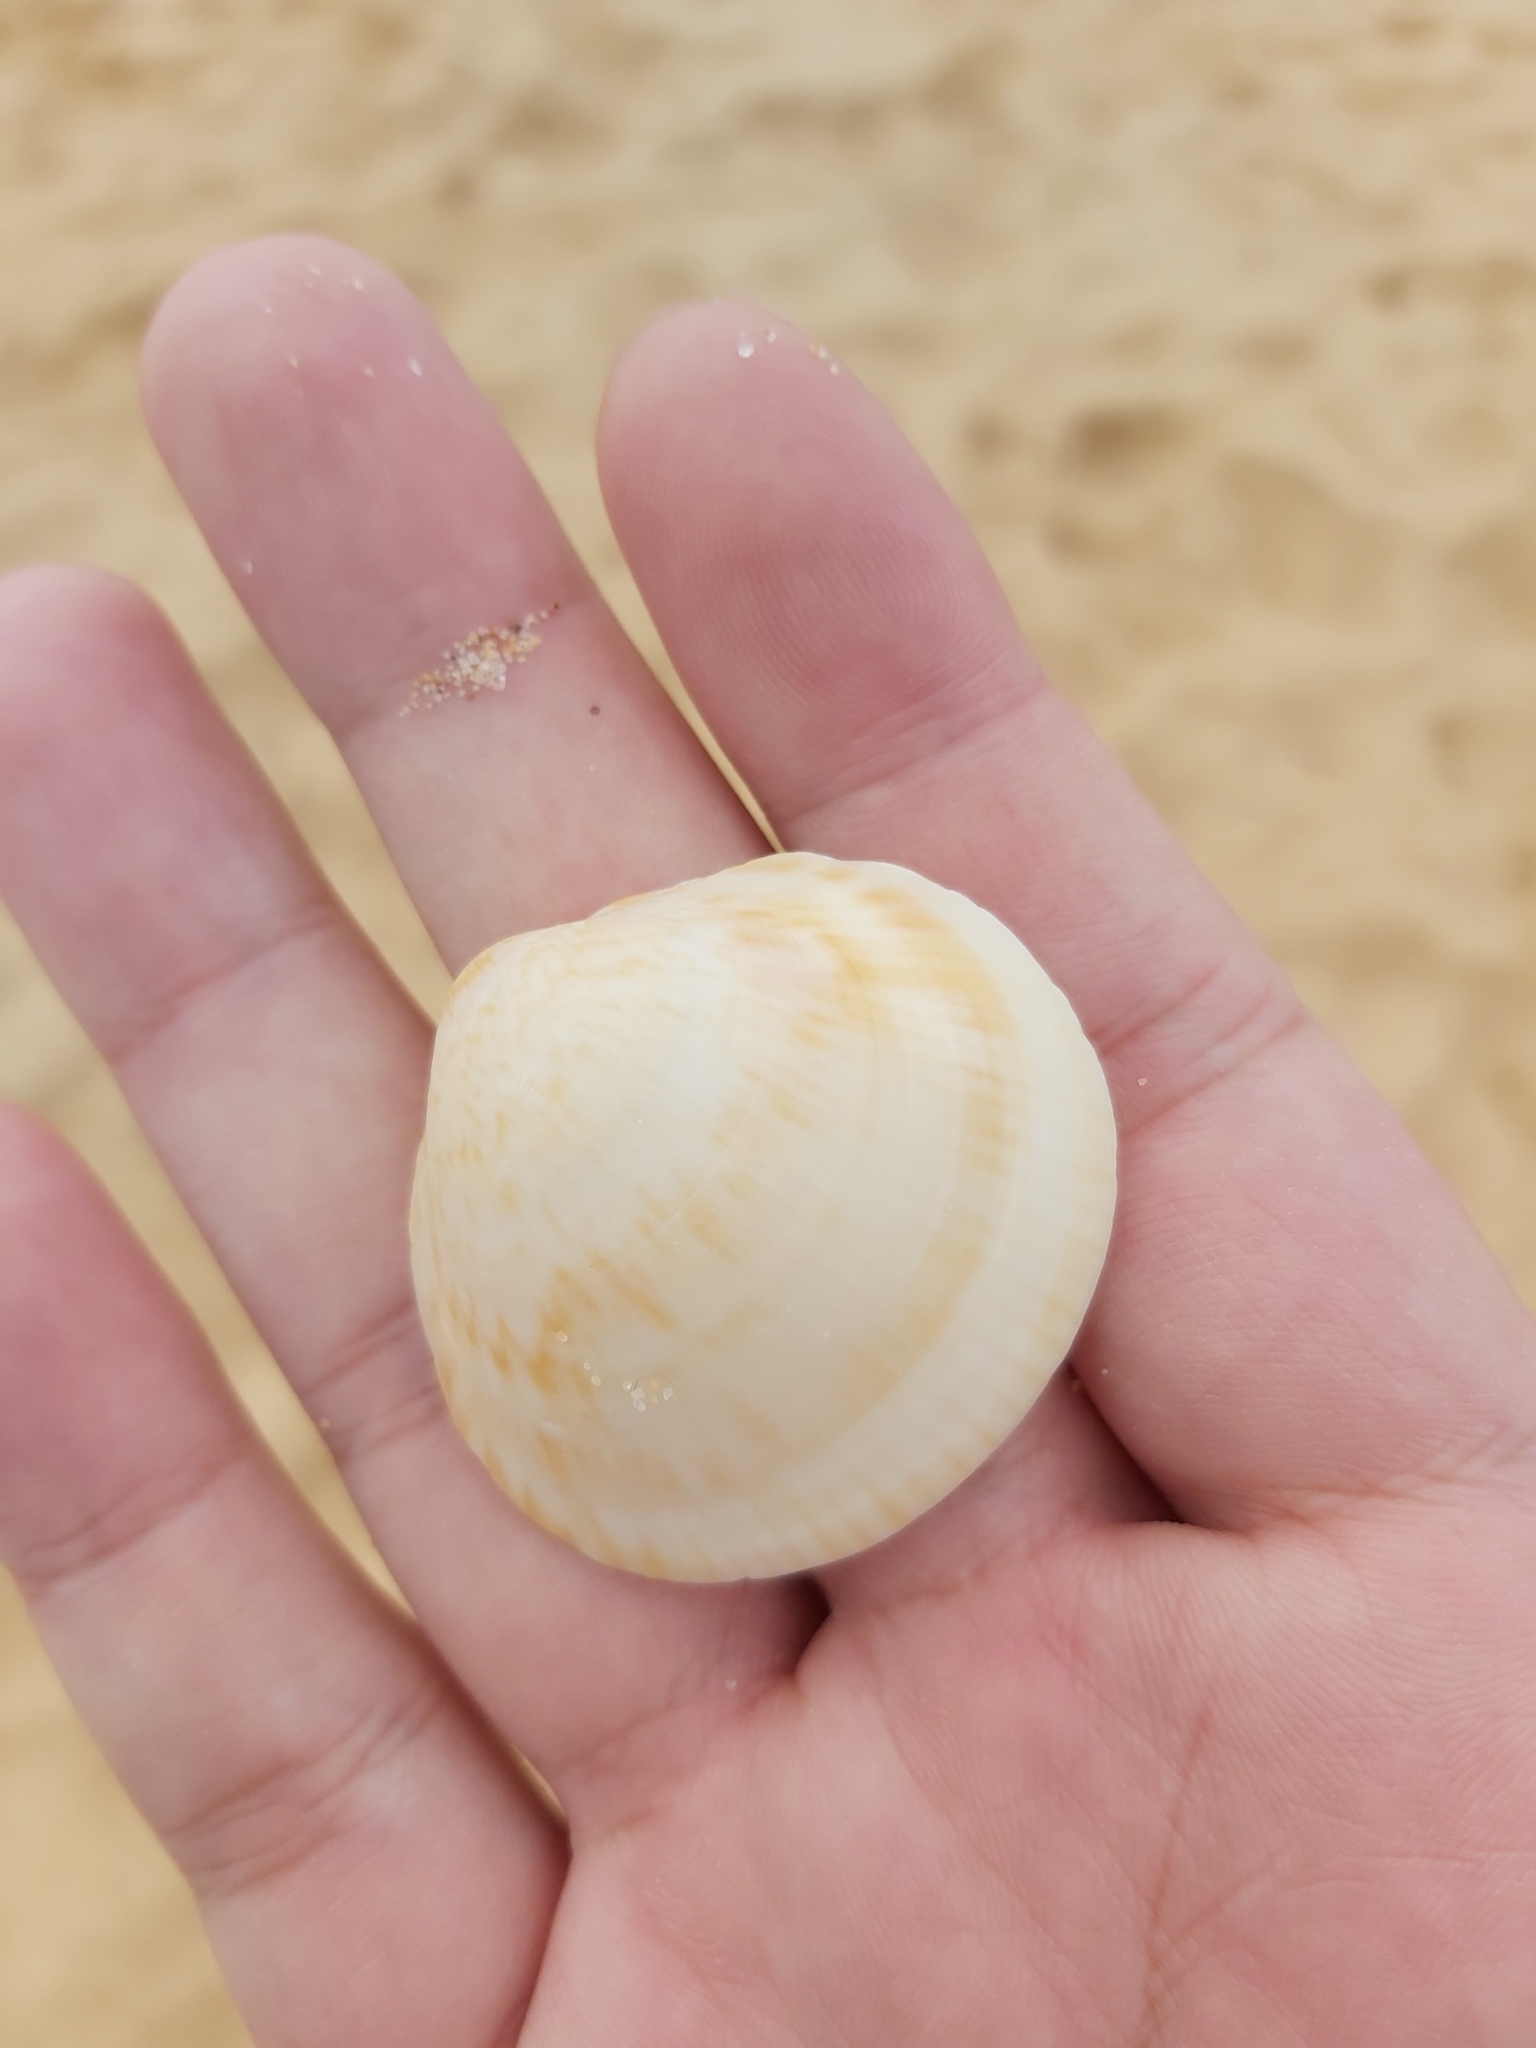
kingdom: Animalia
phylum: Mollusca
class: Bivalvia
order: Arcida
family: Glycymerididae
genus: Glycymeris
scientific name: Glycymeris grayana
